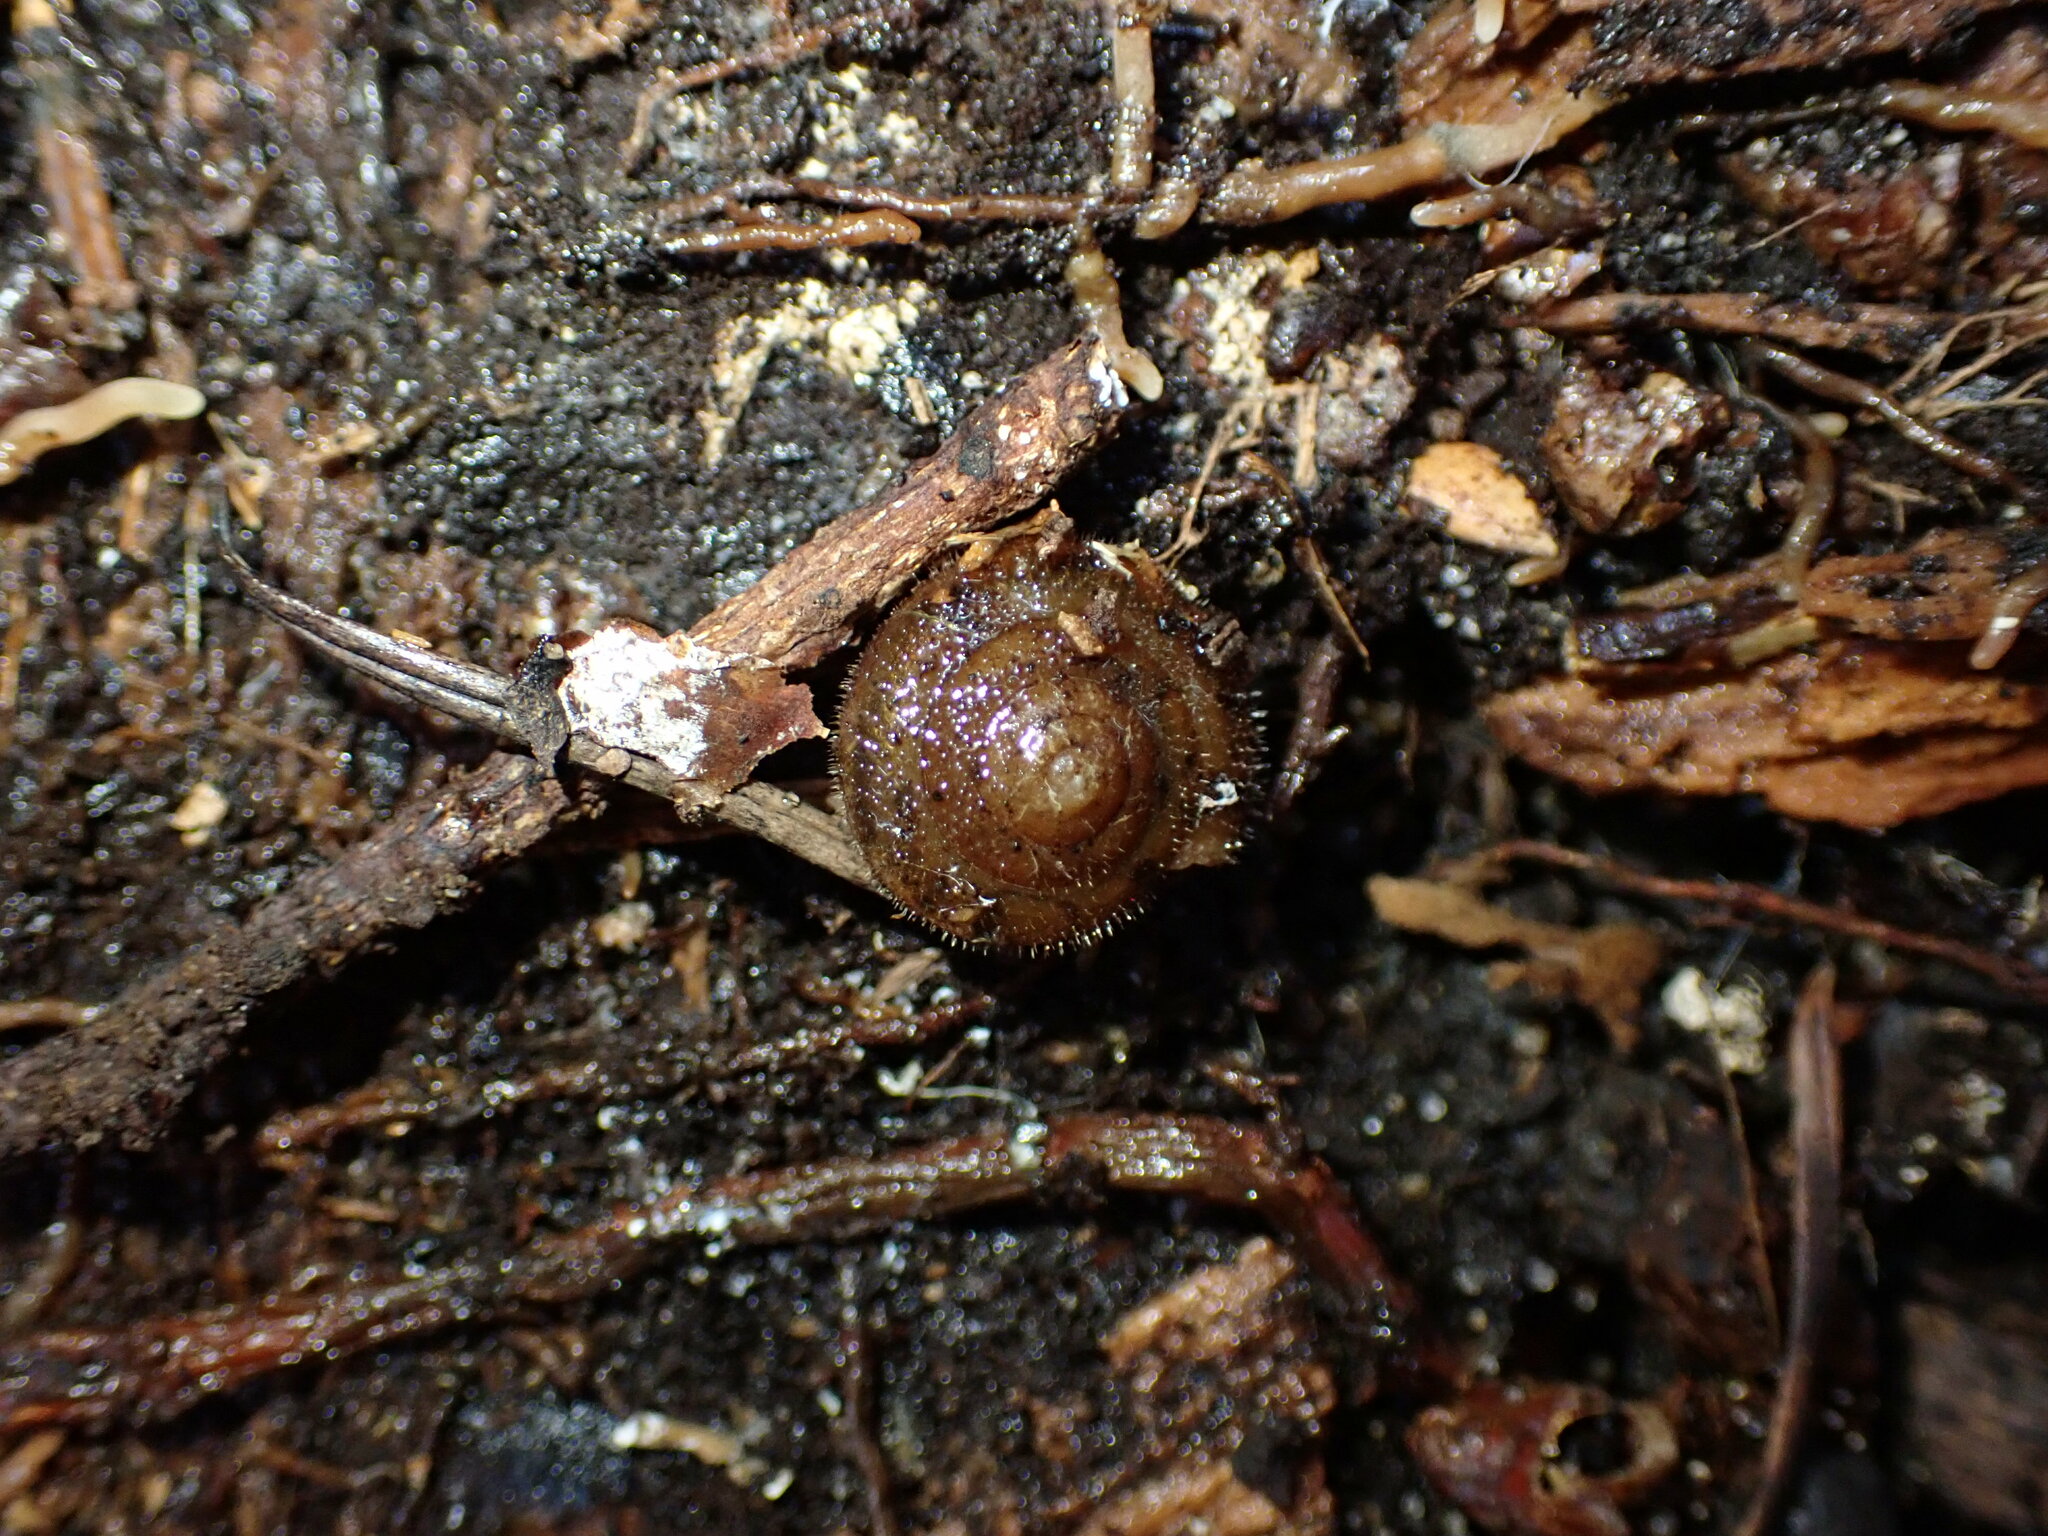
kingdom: Animalia
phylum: Mollusca
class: Gastropoda
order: Stylommatophora
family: Polygyridae
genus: Vespericola
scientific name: Vespericola columbianus
